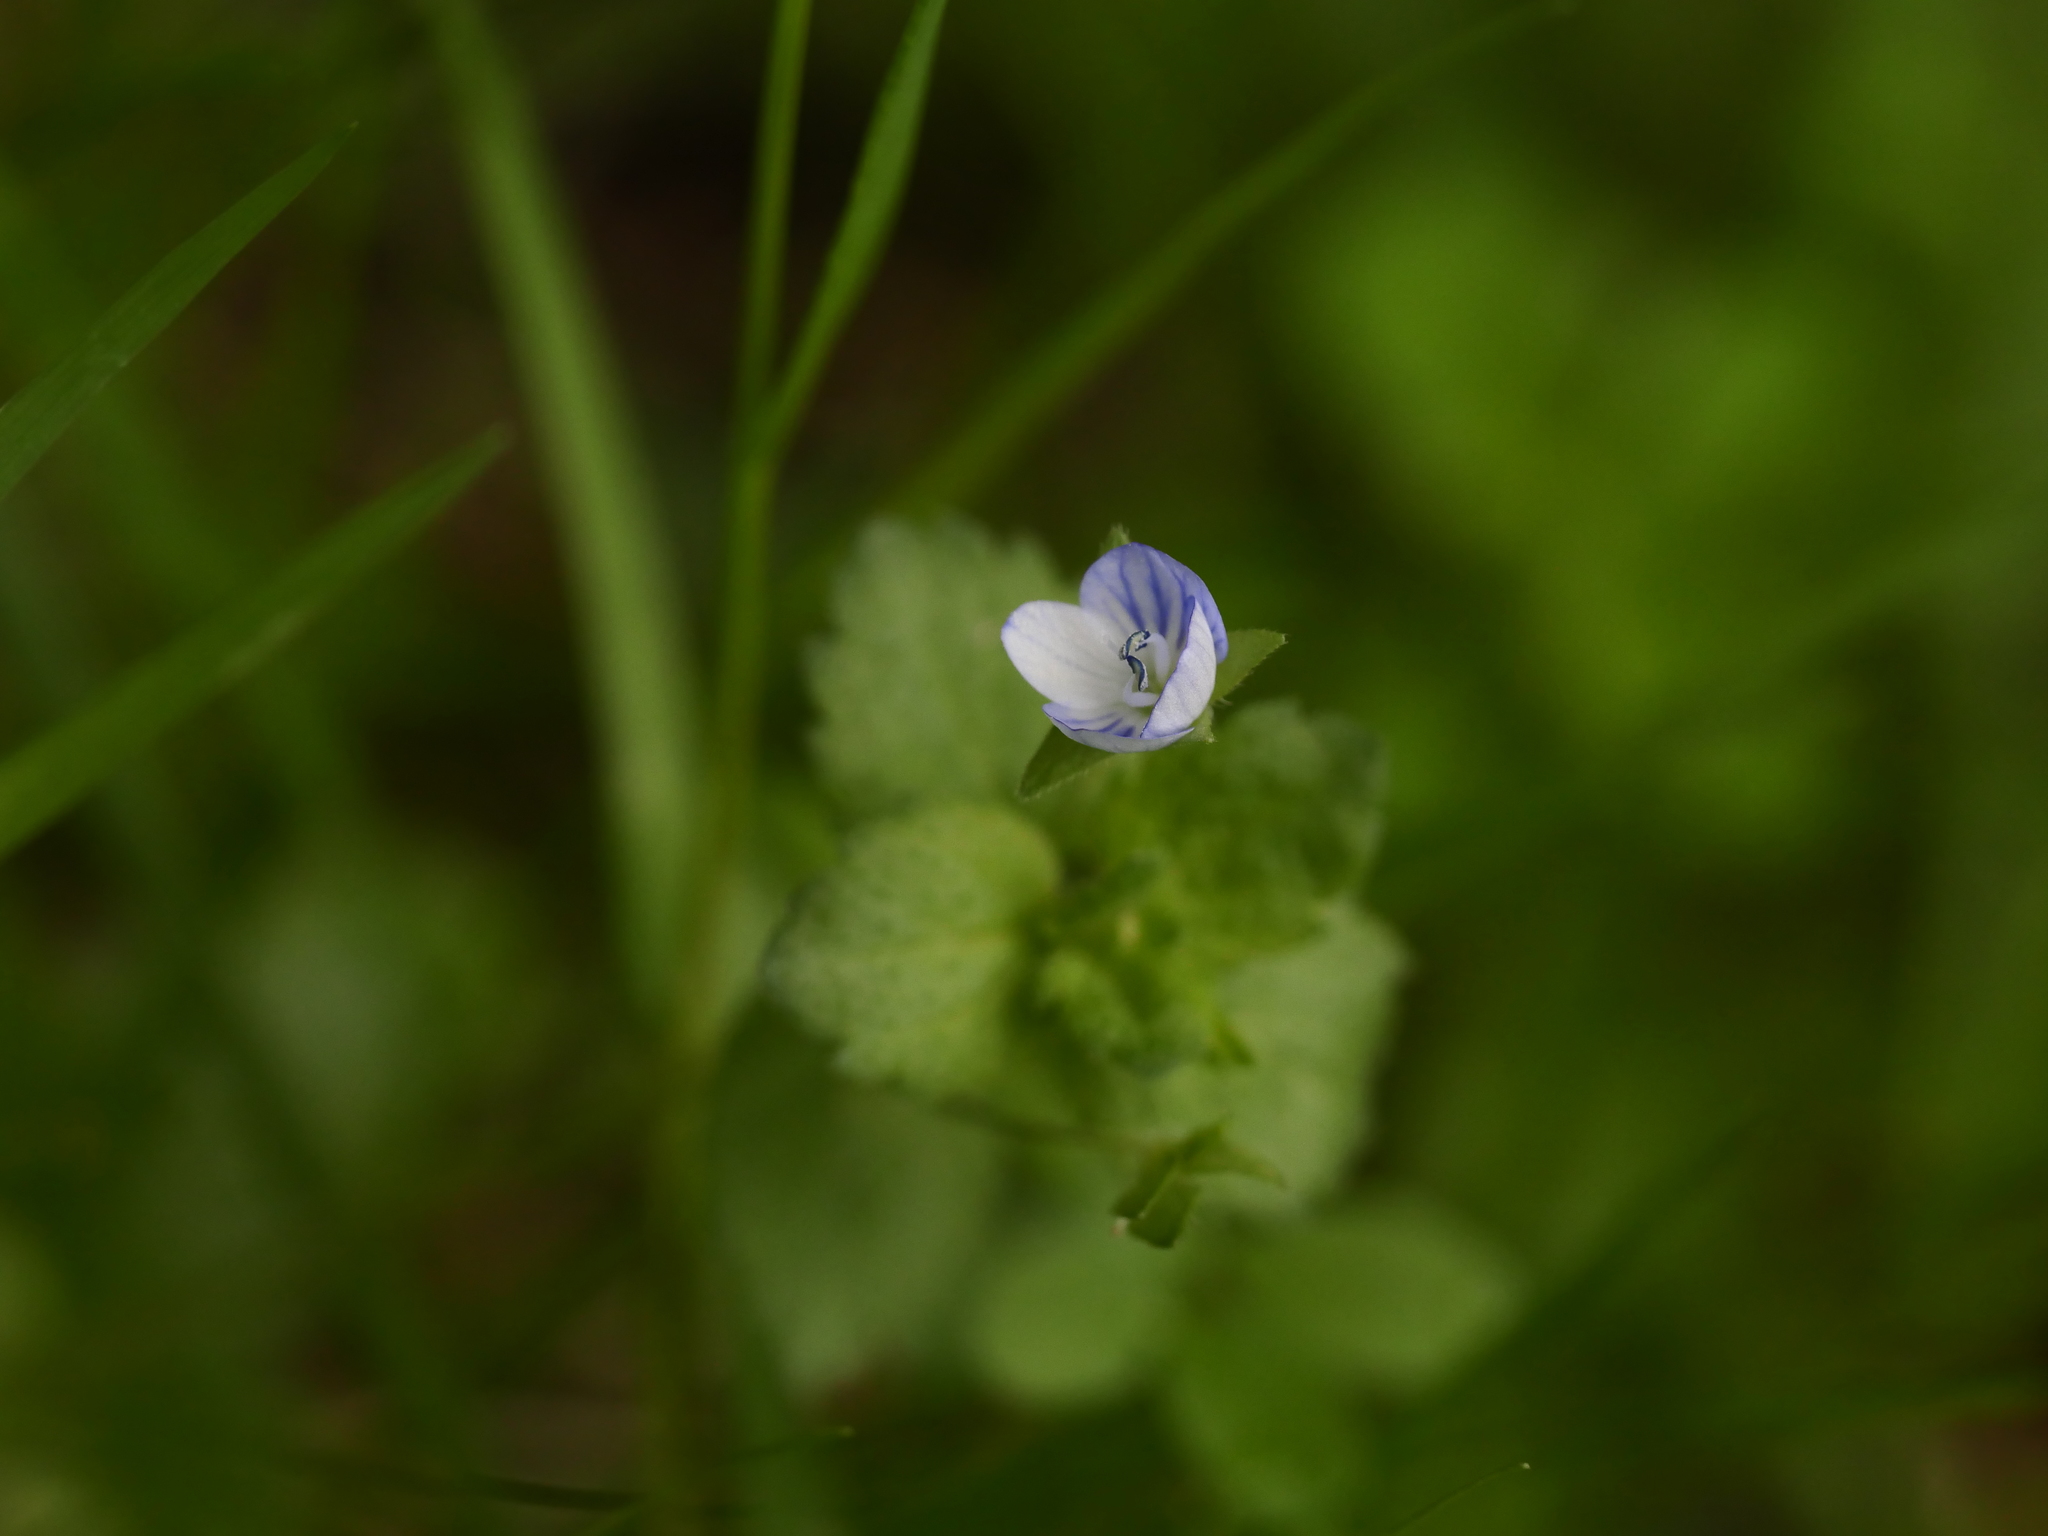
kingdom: Plantae
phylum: Tracheophyta
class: Magnoliopsida
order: Lamiales
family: Plantaginaceae
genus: Veronica
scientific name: Veronica persica
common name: Common field-speedwell
